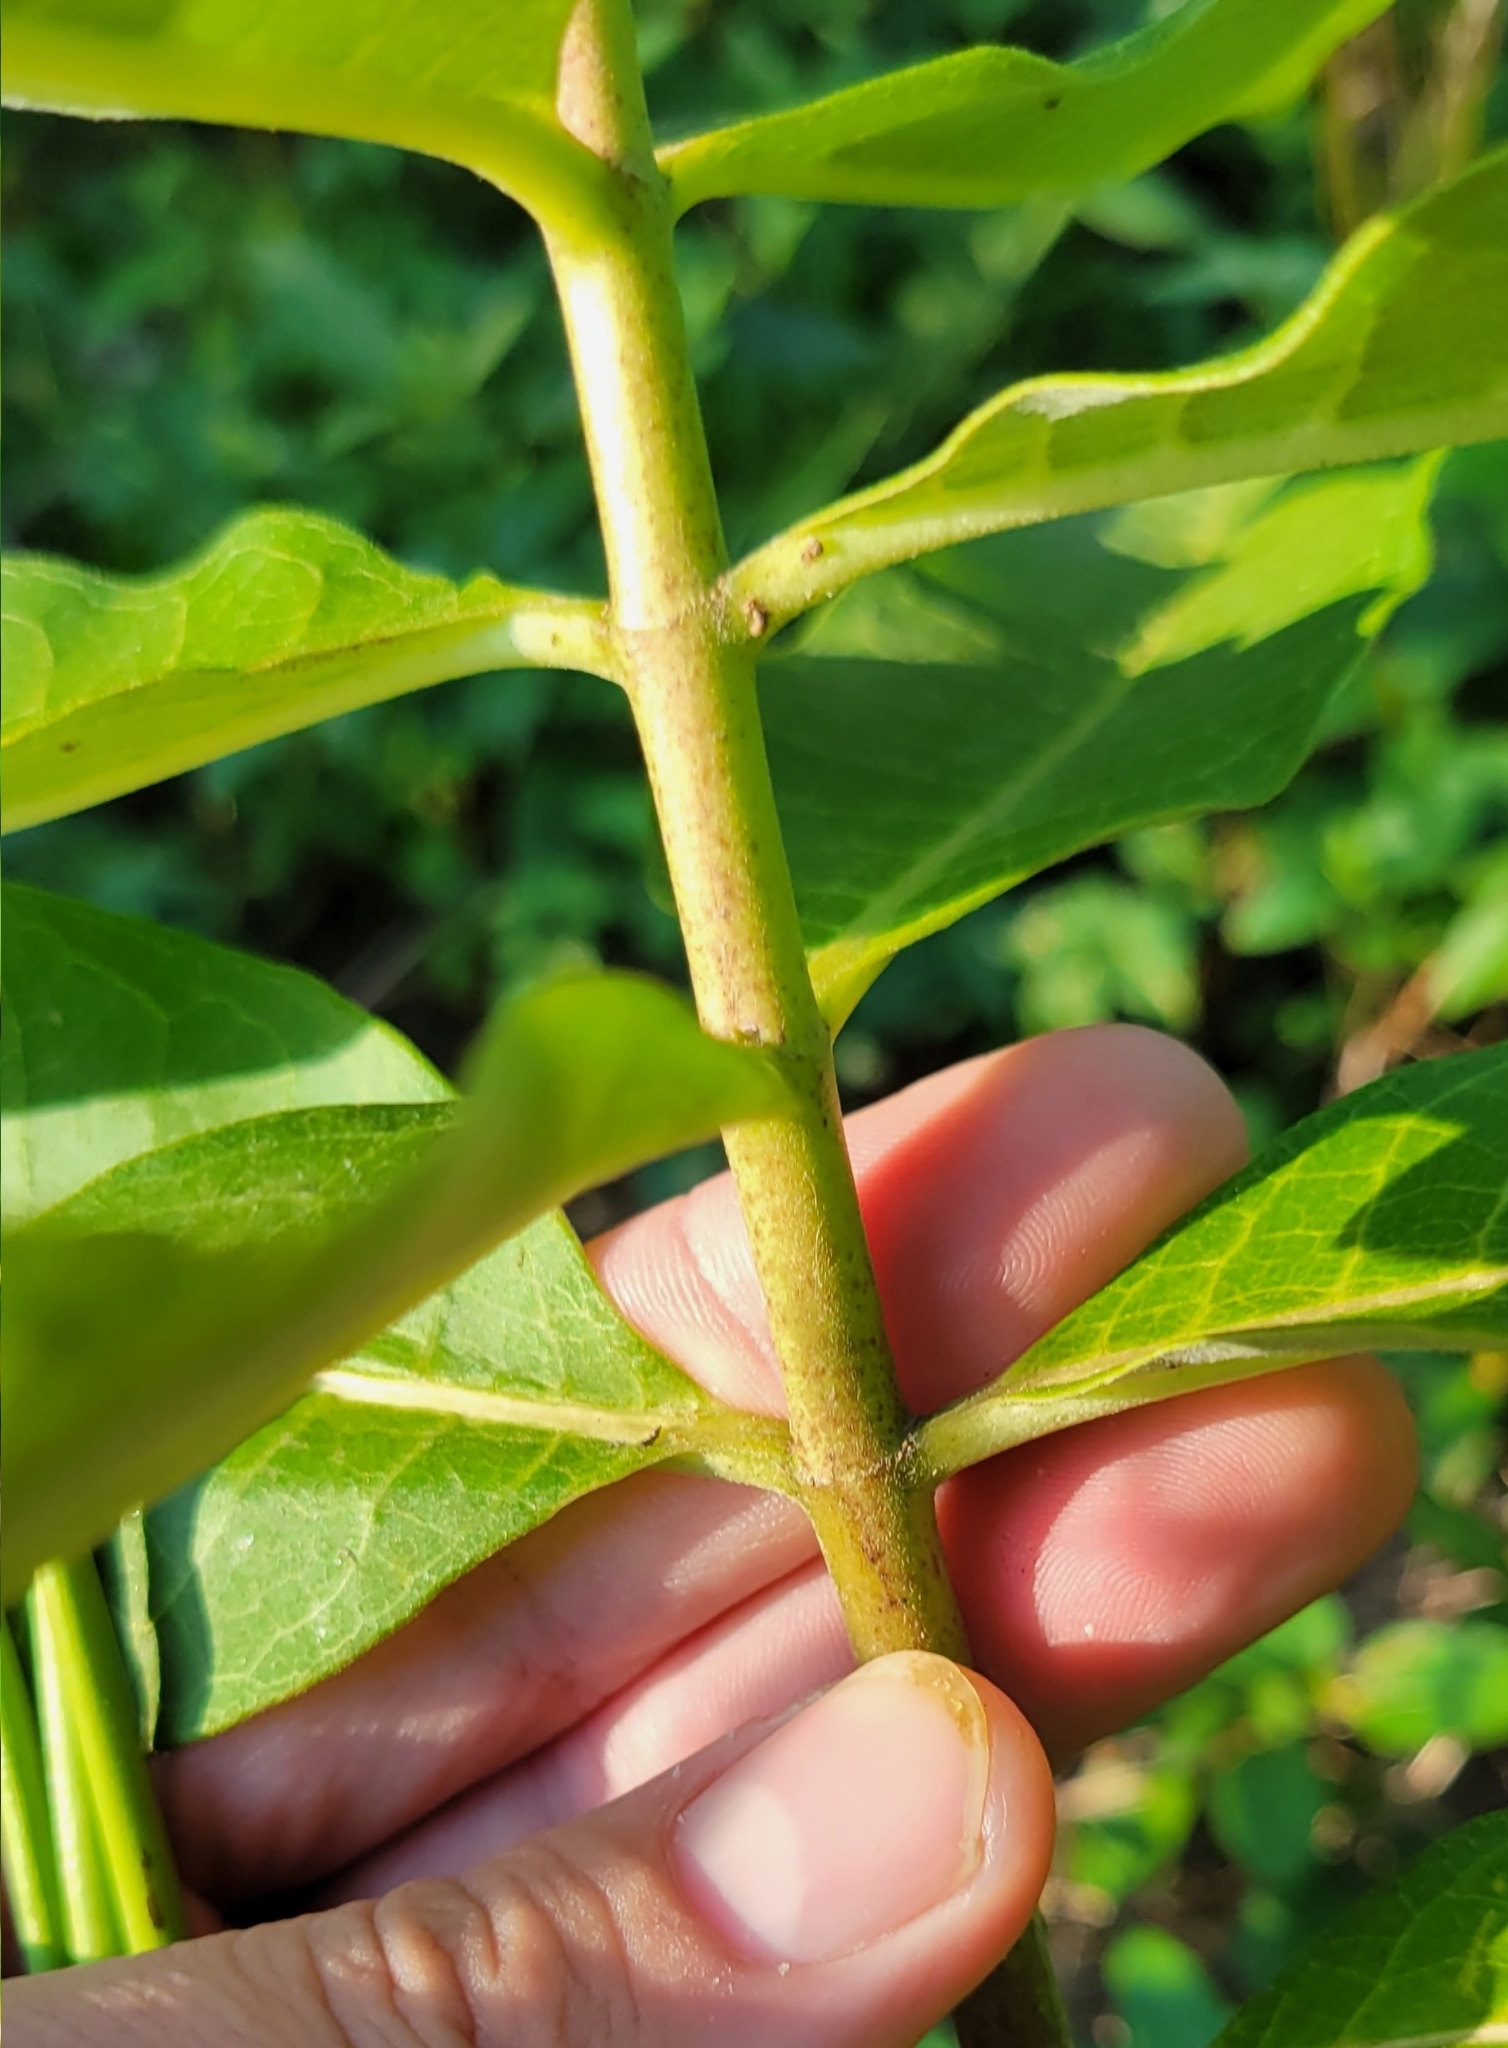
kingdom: Plantae
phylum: Tracheophyta
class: Magnoliopsida
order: Gentianales
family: Apocynaceae
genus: Asclepias
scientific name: Asclepias syriaca
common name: Common milkweed
